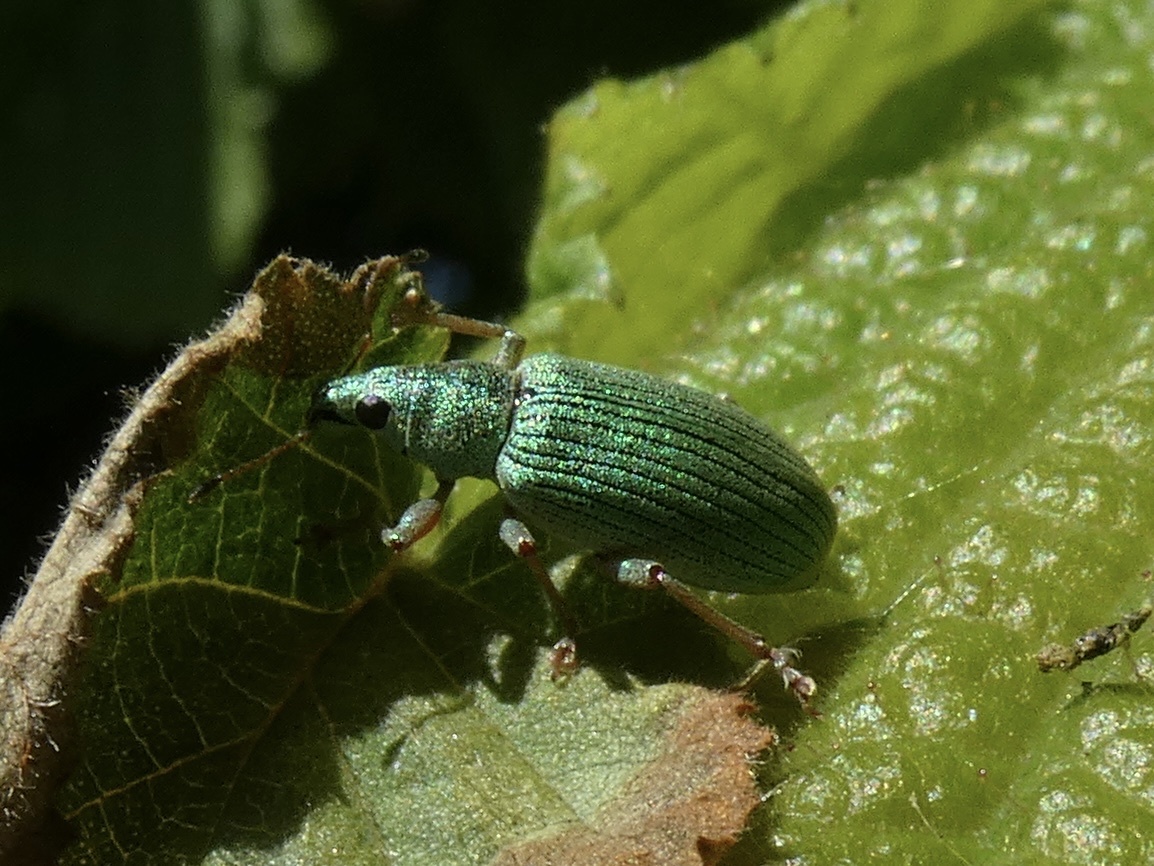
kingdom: Animalia
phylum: Arthropoda
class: Insecta
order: Coleoptera
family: Curculionidae
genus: Polydrusus
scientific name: Polydrusus formosus
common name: Weevil
